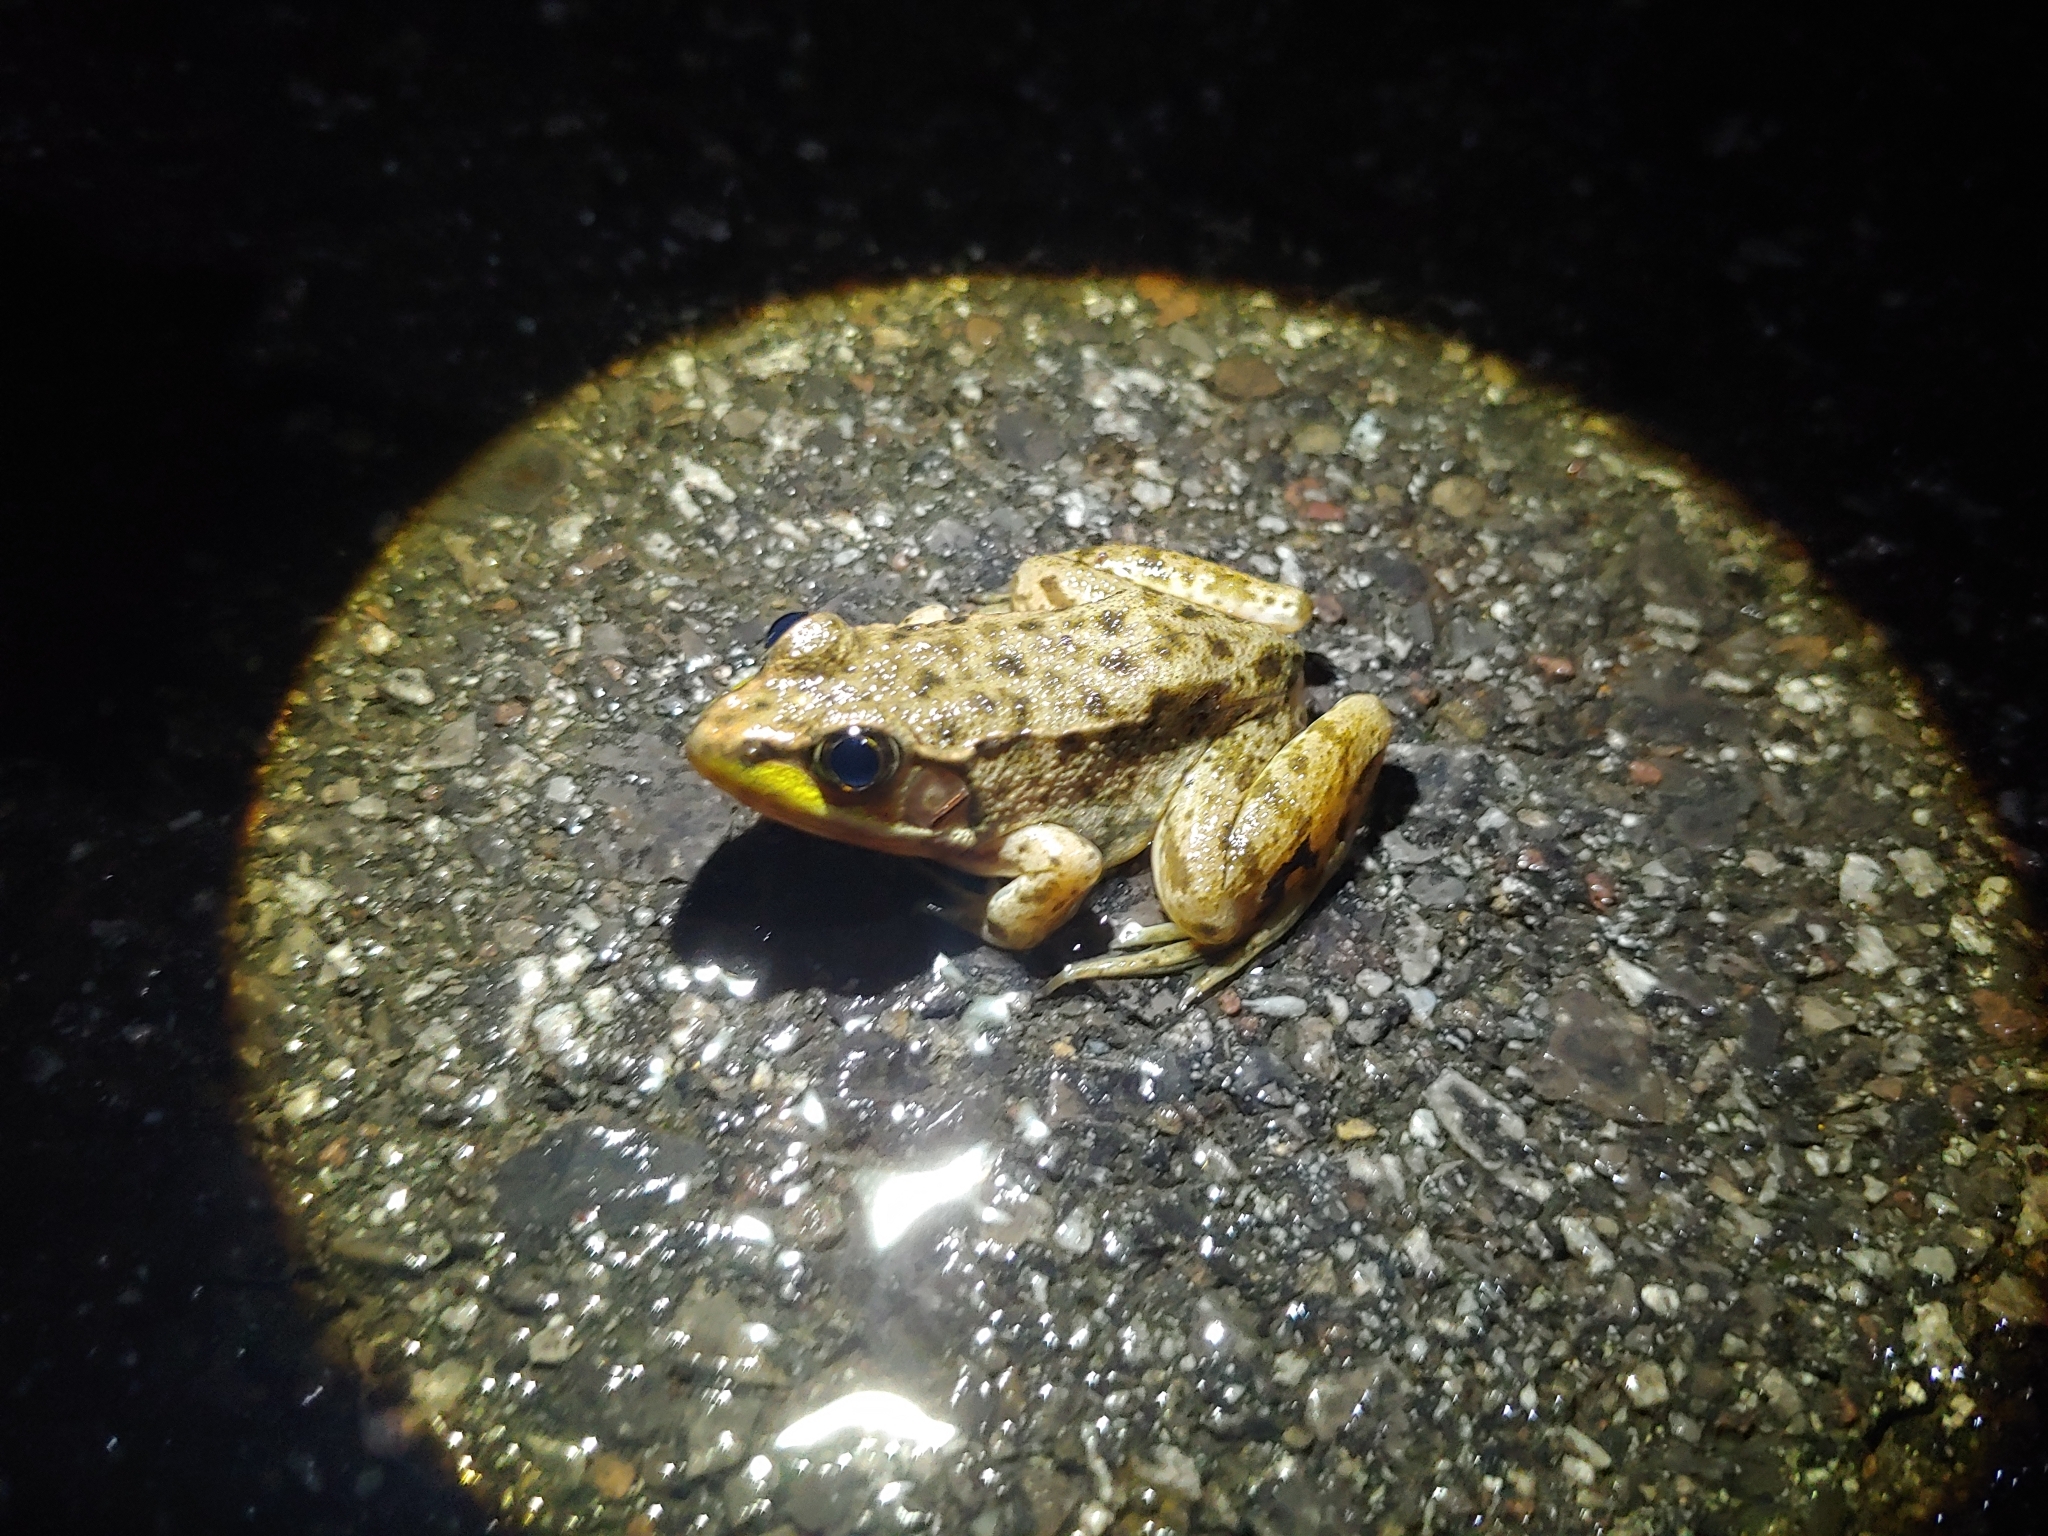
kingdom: Animalia
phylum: Chordata
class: Amphibia
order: Anura
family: Ranidae
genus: Lithobates
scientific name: Lithobates clamitans
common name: Green frog
